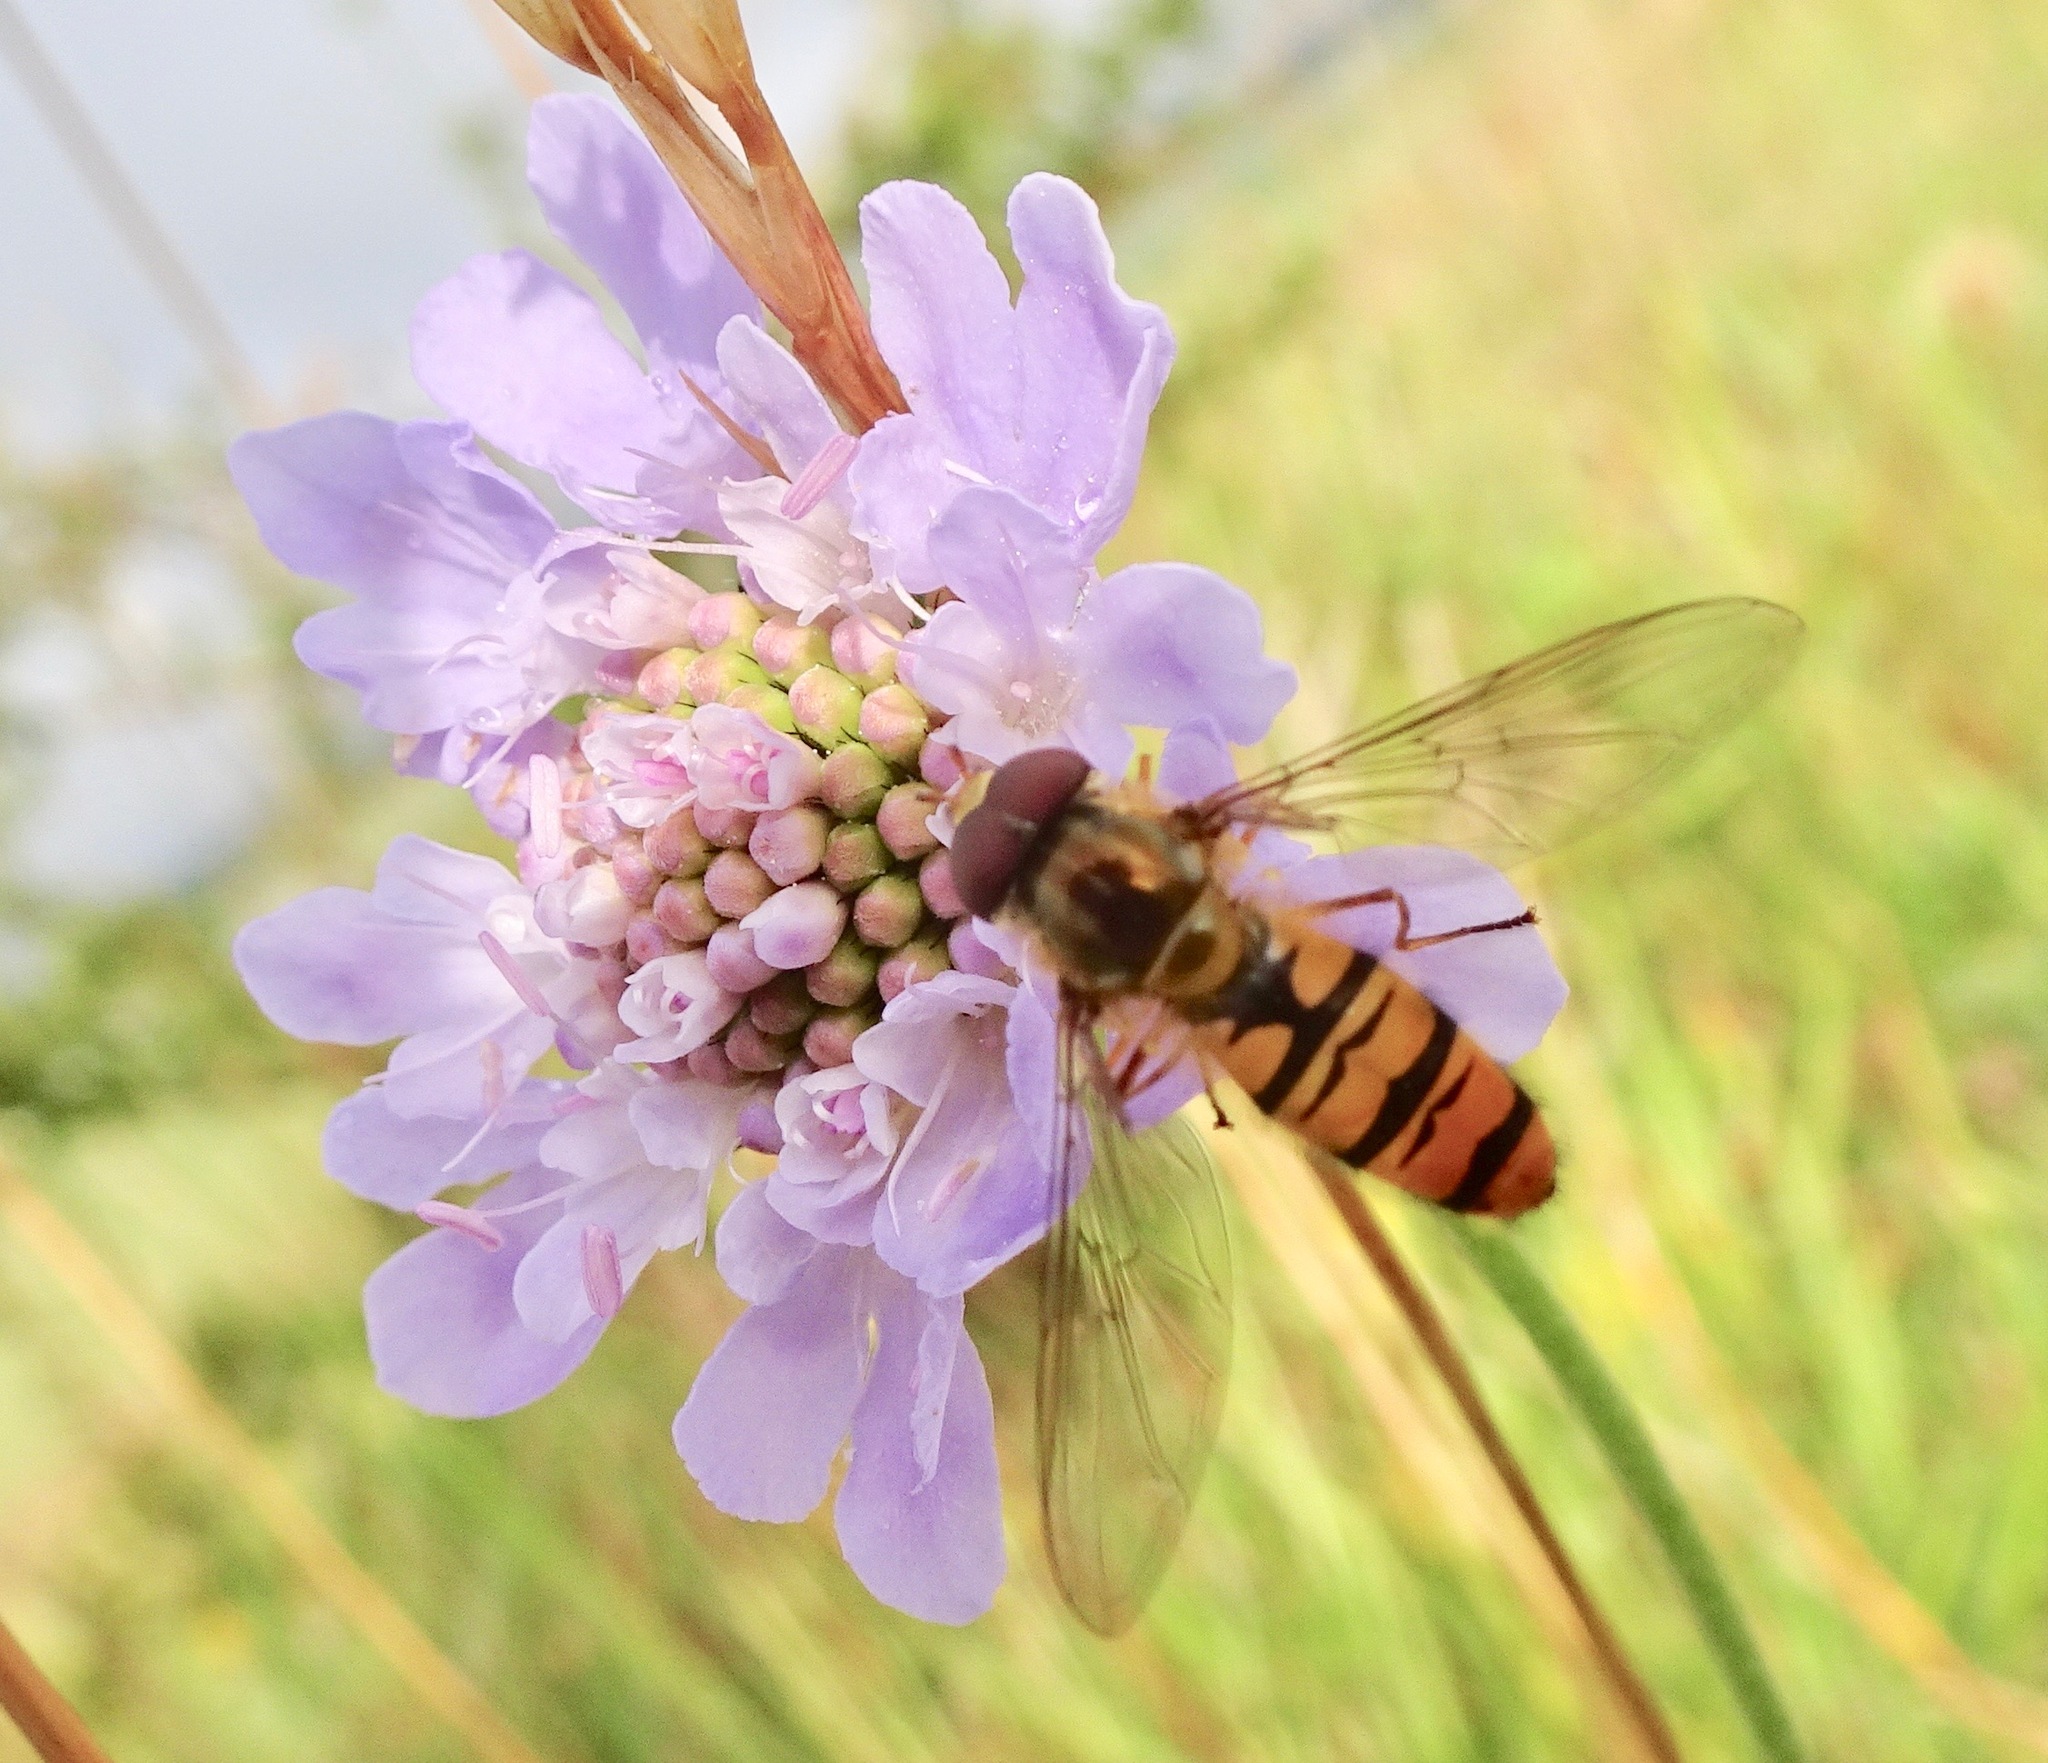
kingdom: Animalia
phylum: Arthropoda
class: Insecta
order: Diptera
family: Syrphidae
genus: Episyrphus
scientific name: Episyrphus balteatus
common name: Marmalade hoverfly
